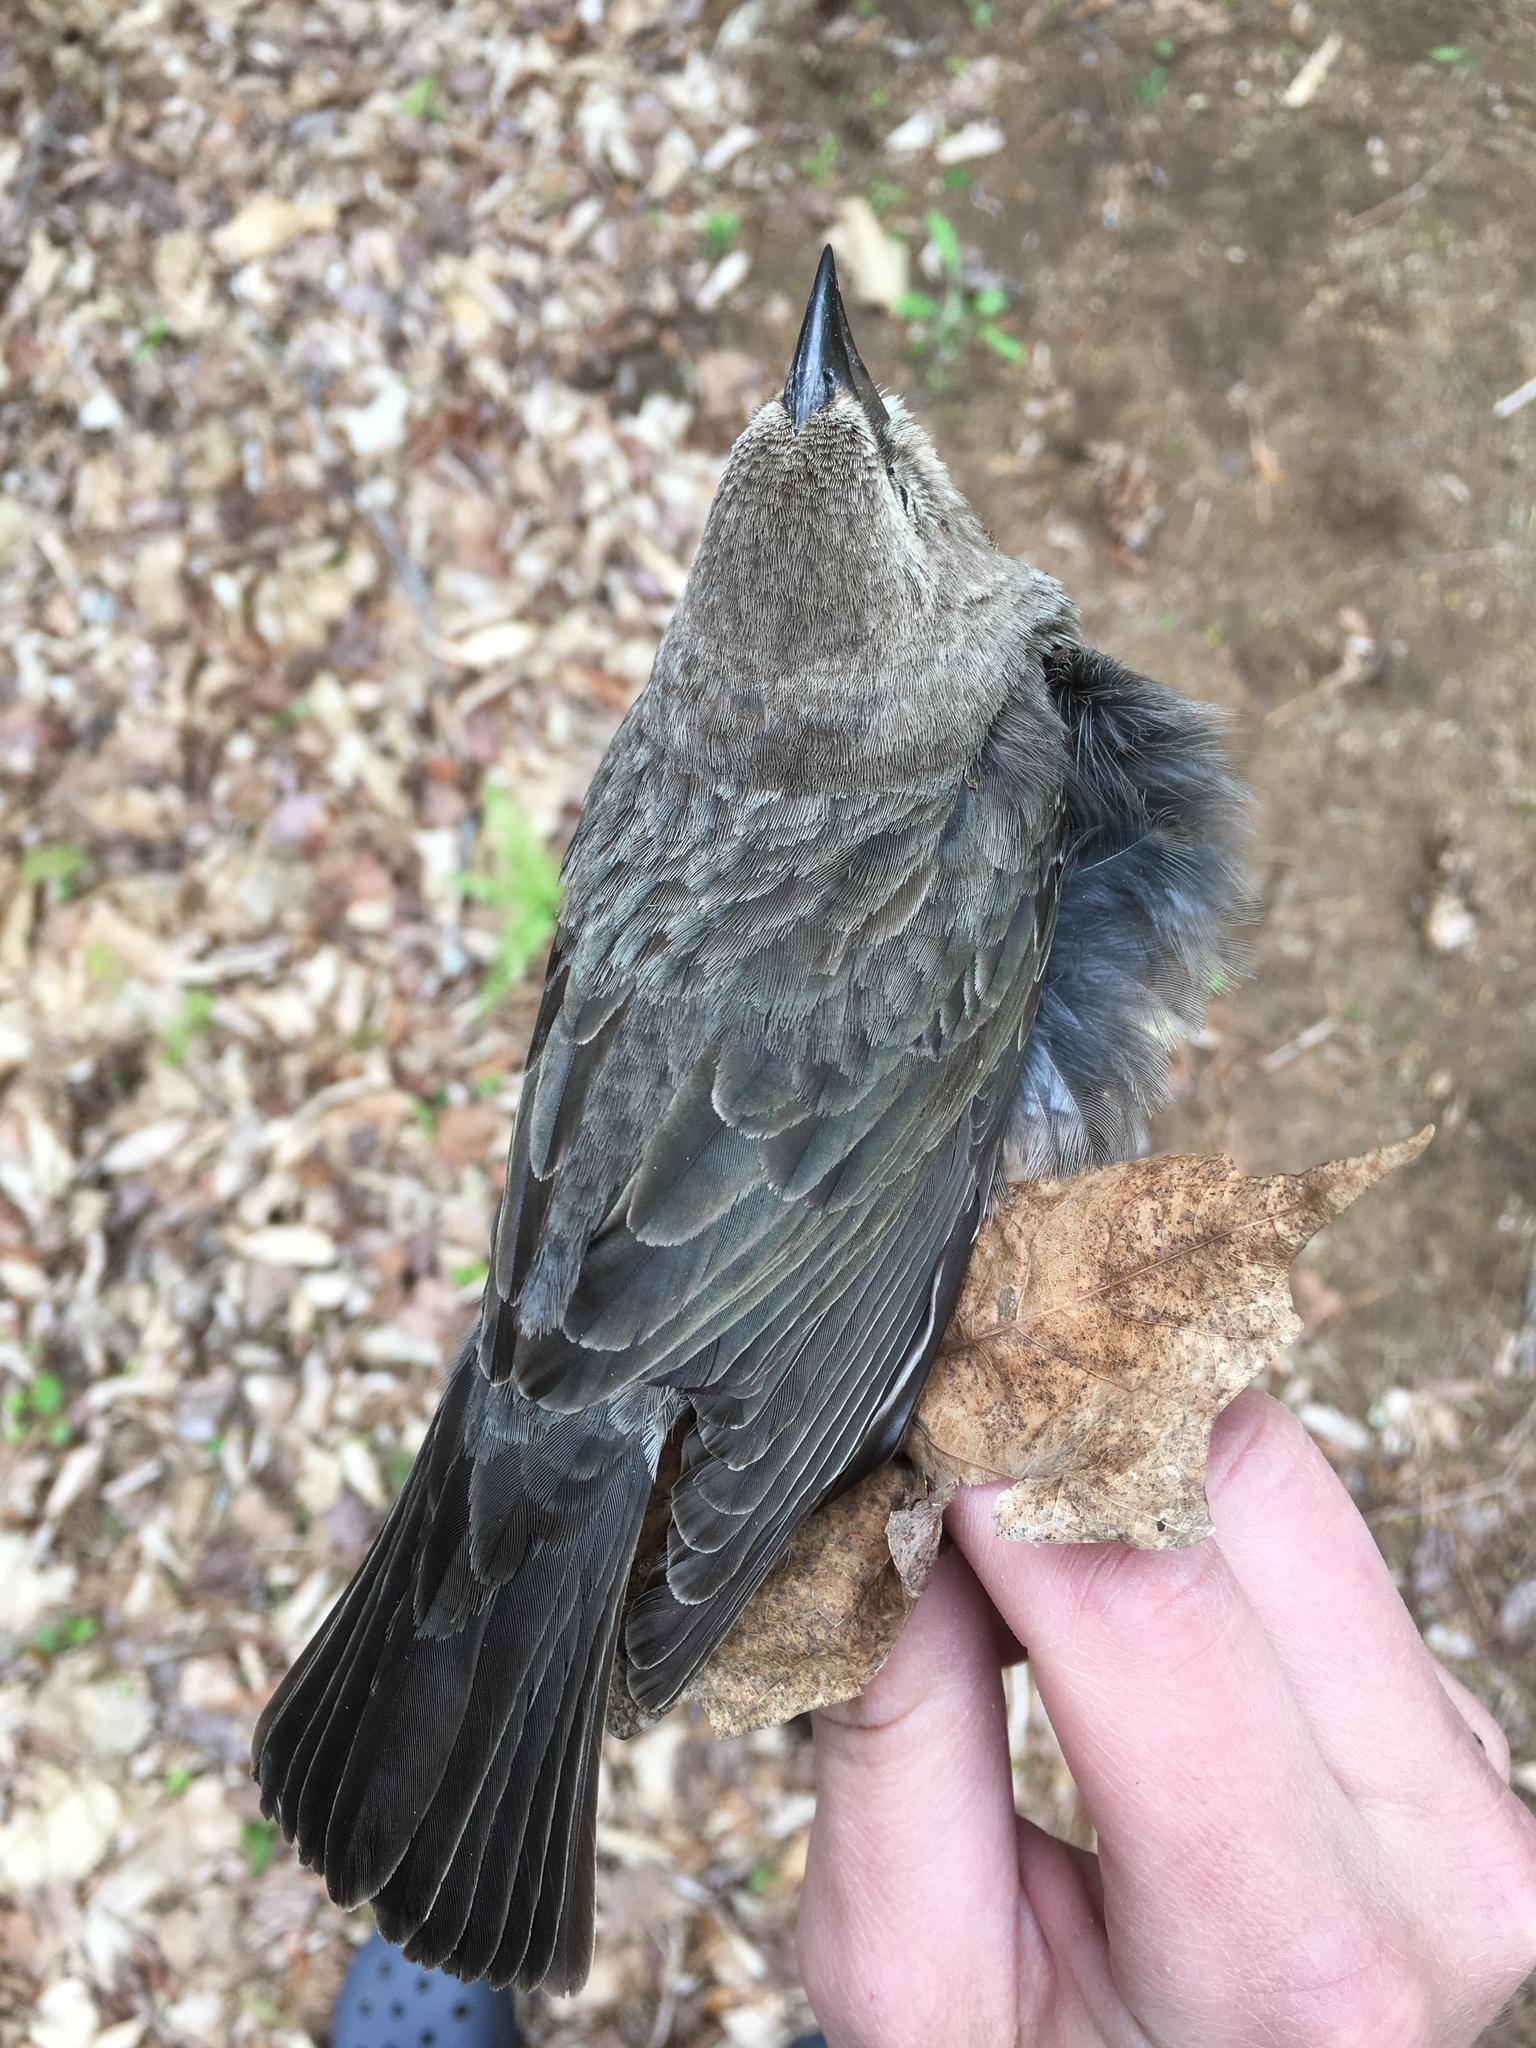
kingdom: Animalia
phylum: Chordata
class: Aves
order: Passeriformes
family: Icteridae
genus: Molothrus
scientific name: Molothrus ater
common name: Brown-headed cowbird
